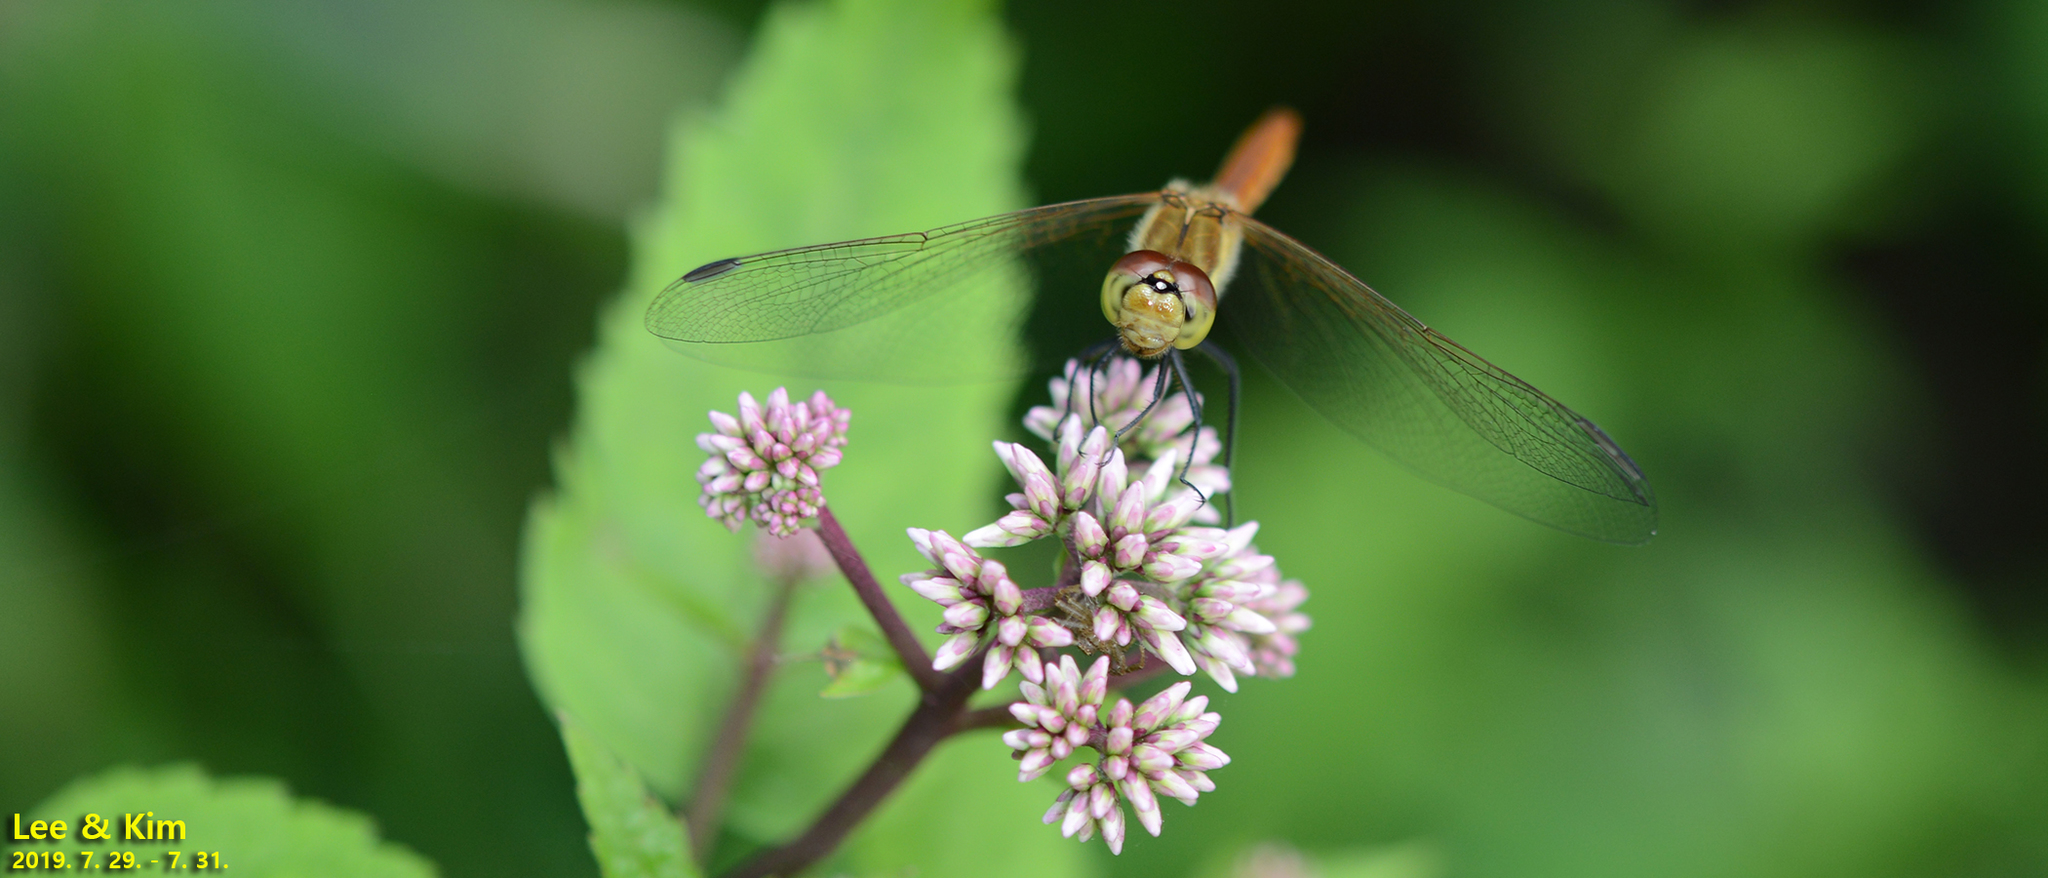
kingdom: Animalia
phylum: Arthropoda
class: Insecta
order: Odonata
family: Libellulidae
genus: Sympetrum
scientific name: Sympetrum depressiusculum
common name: Spotted darter
